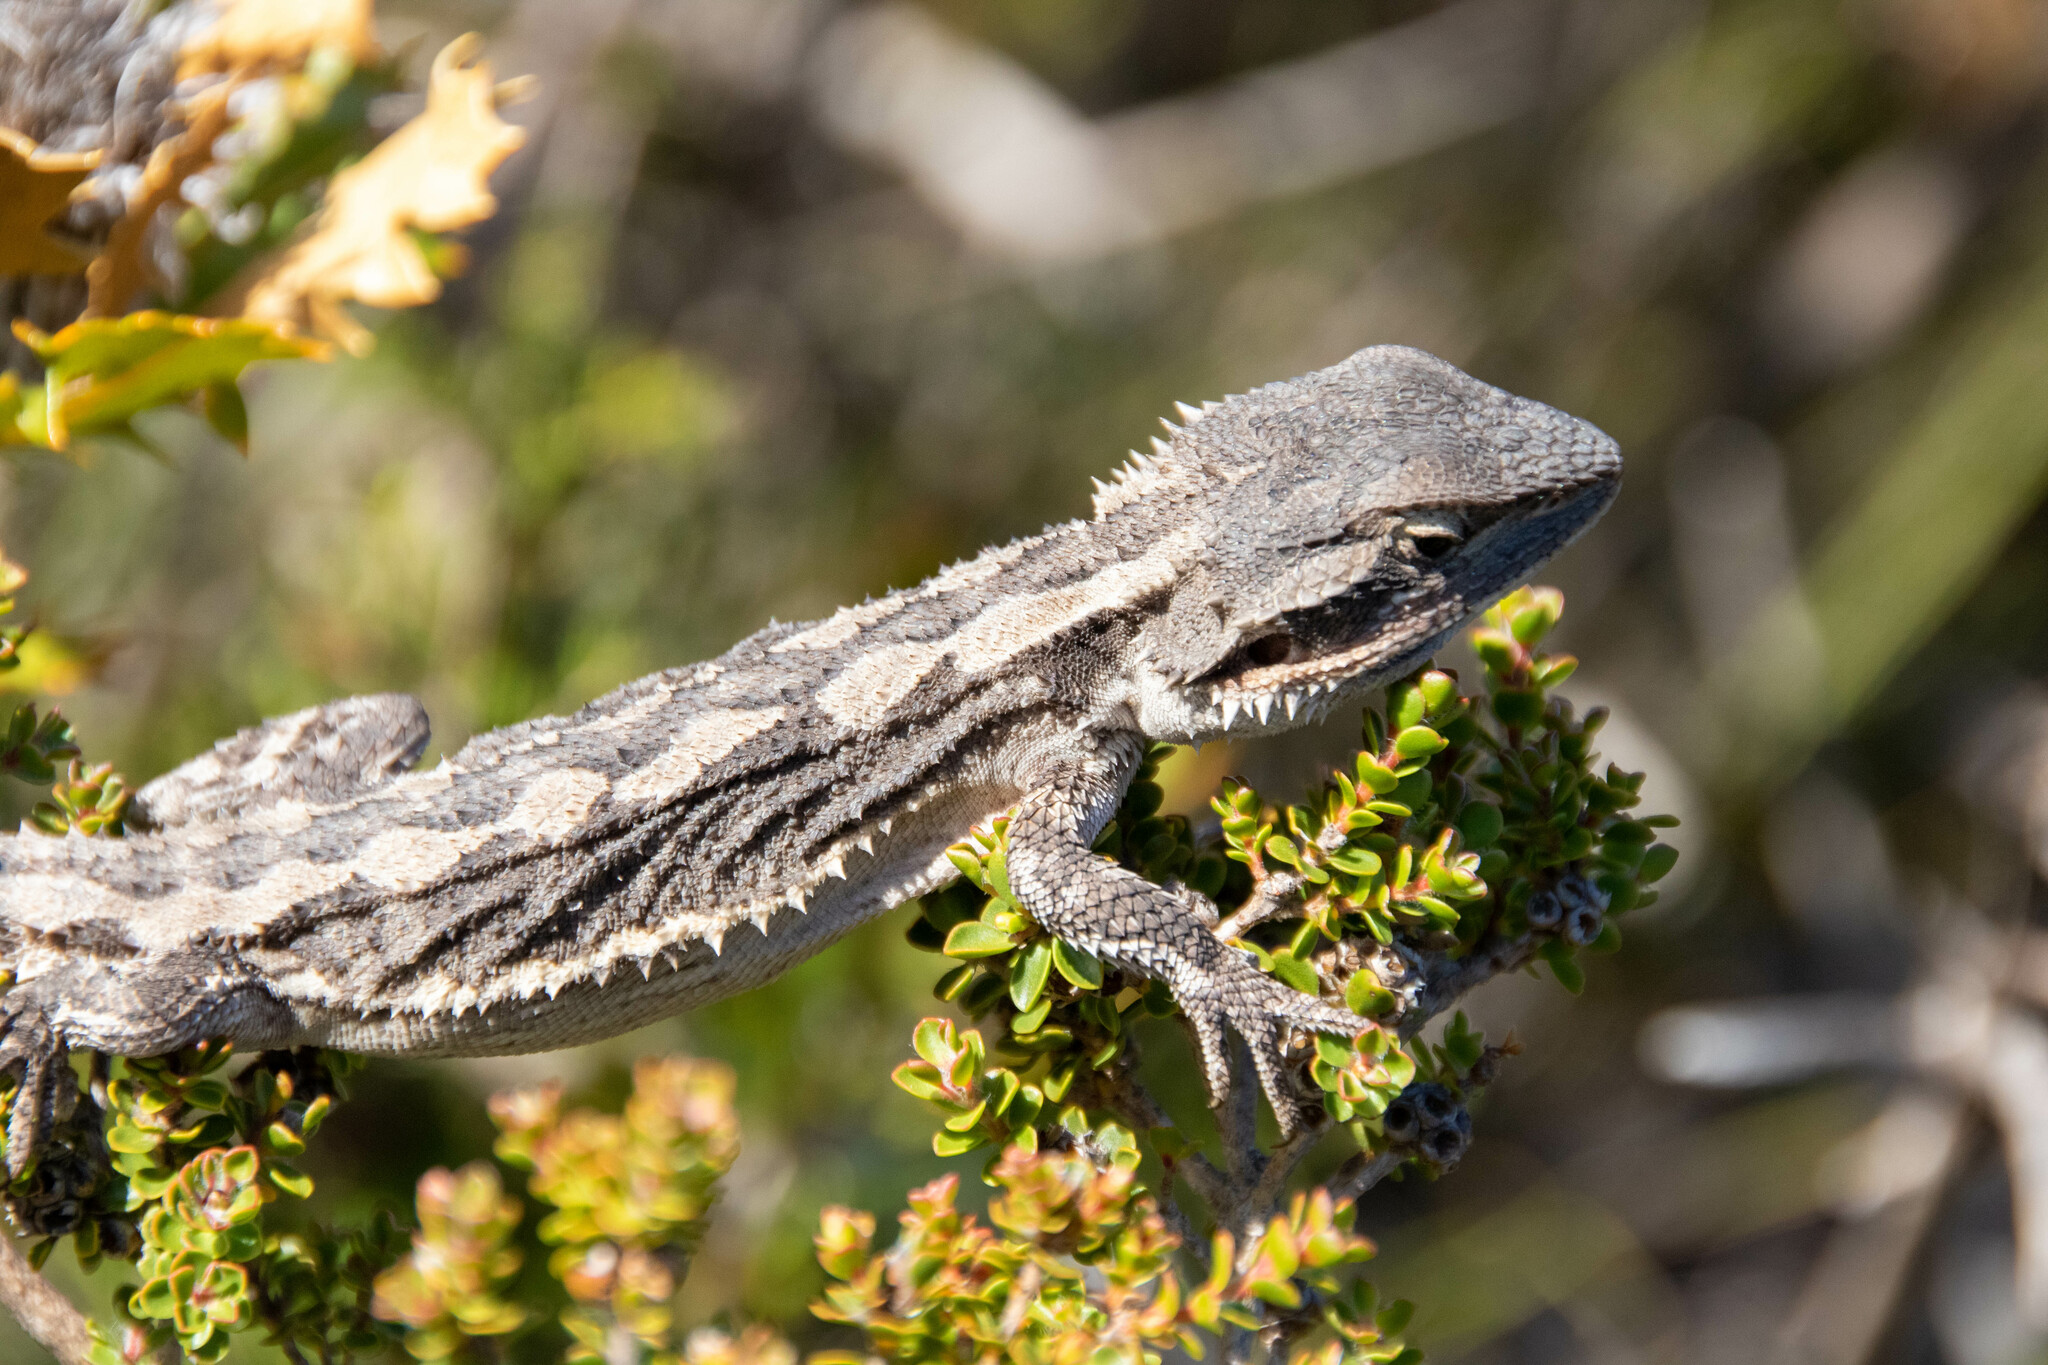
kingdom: Animalia
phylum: Chordata
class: Squamata
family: Agamidae
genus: Pogona
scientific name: Pogona minor
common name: Dwarf bearded dragon
